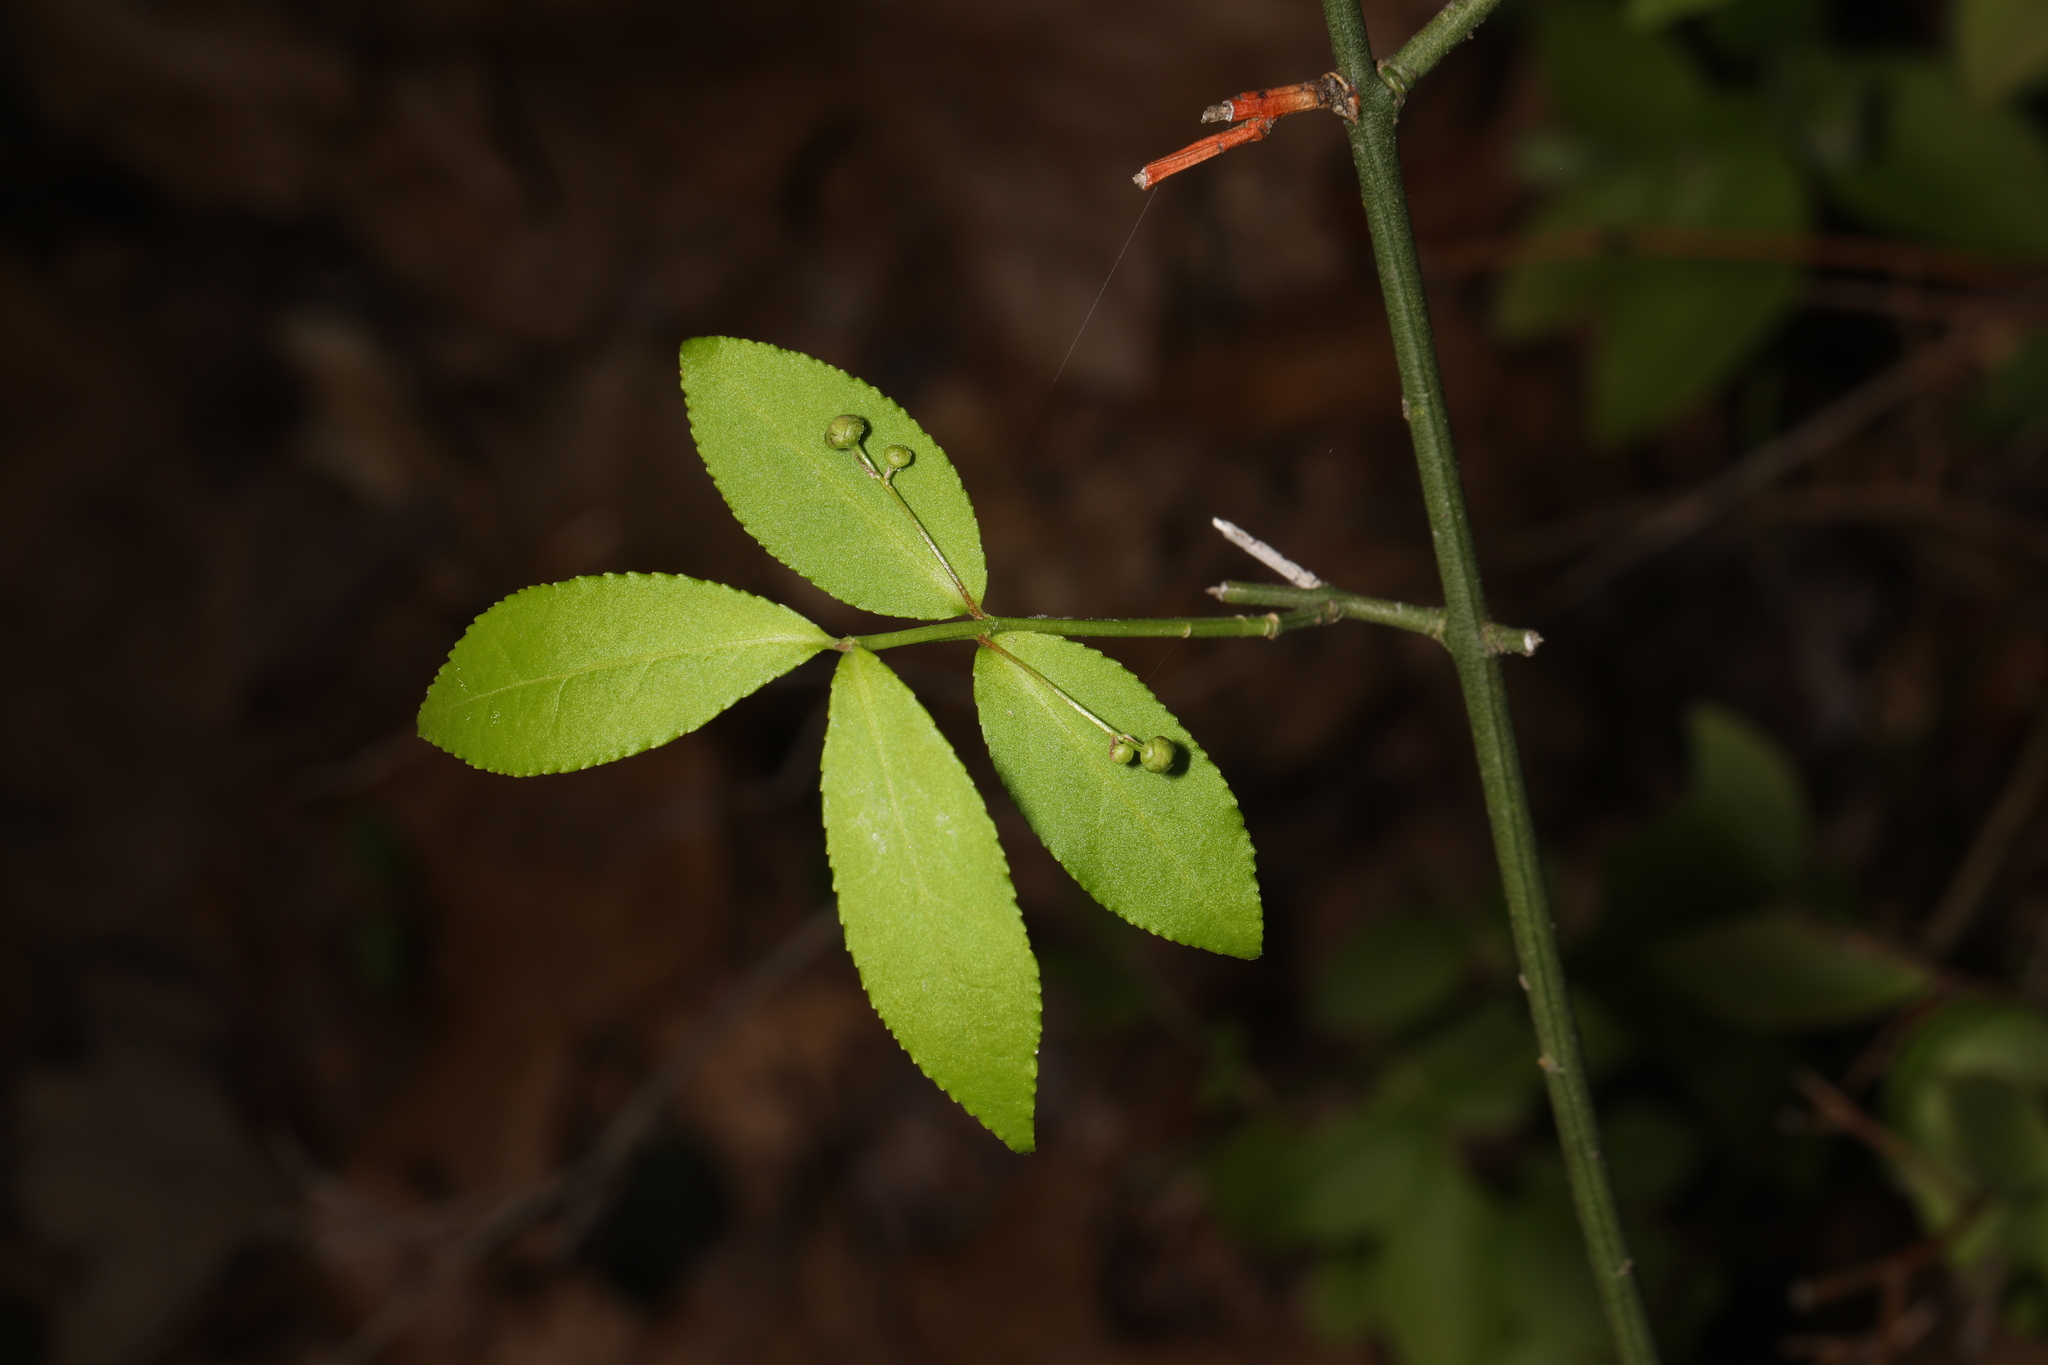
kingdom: Plantae
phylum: Tracheophyta
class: Magnoliopsida
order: Celastrales
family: Celastraceae
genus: Euonymus
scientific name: Euonymus americanus
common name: Bursting-heart
